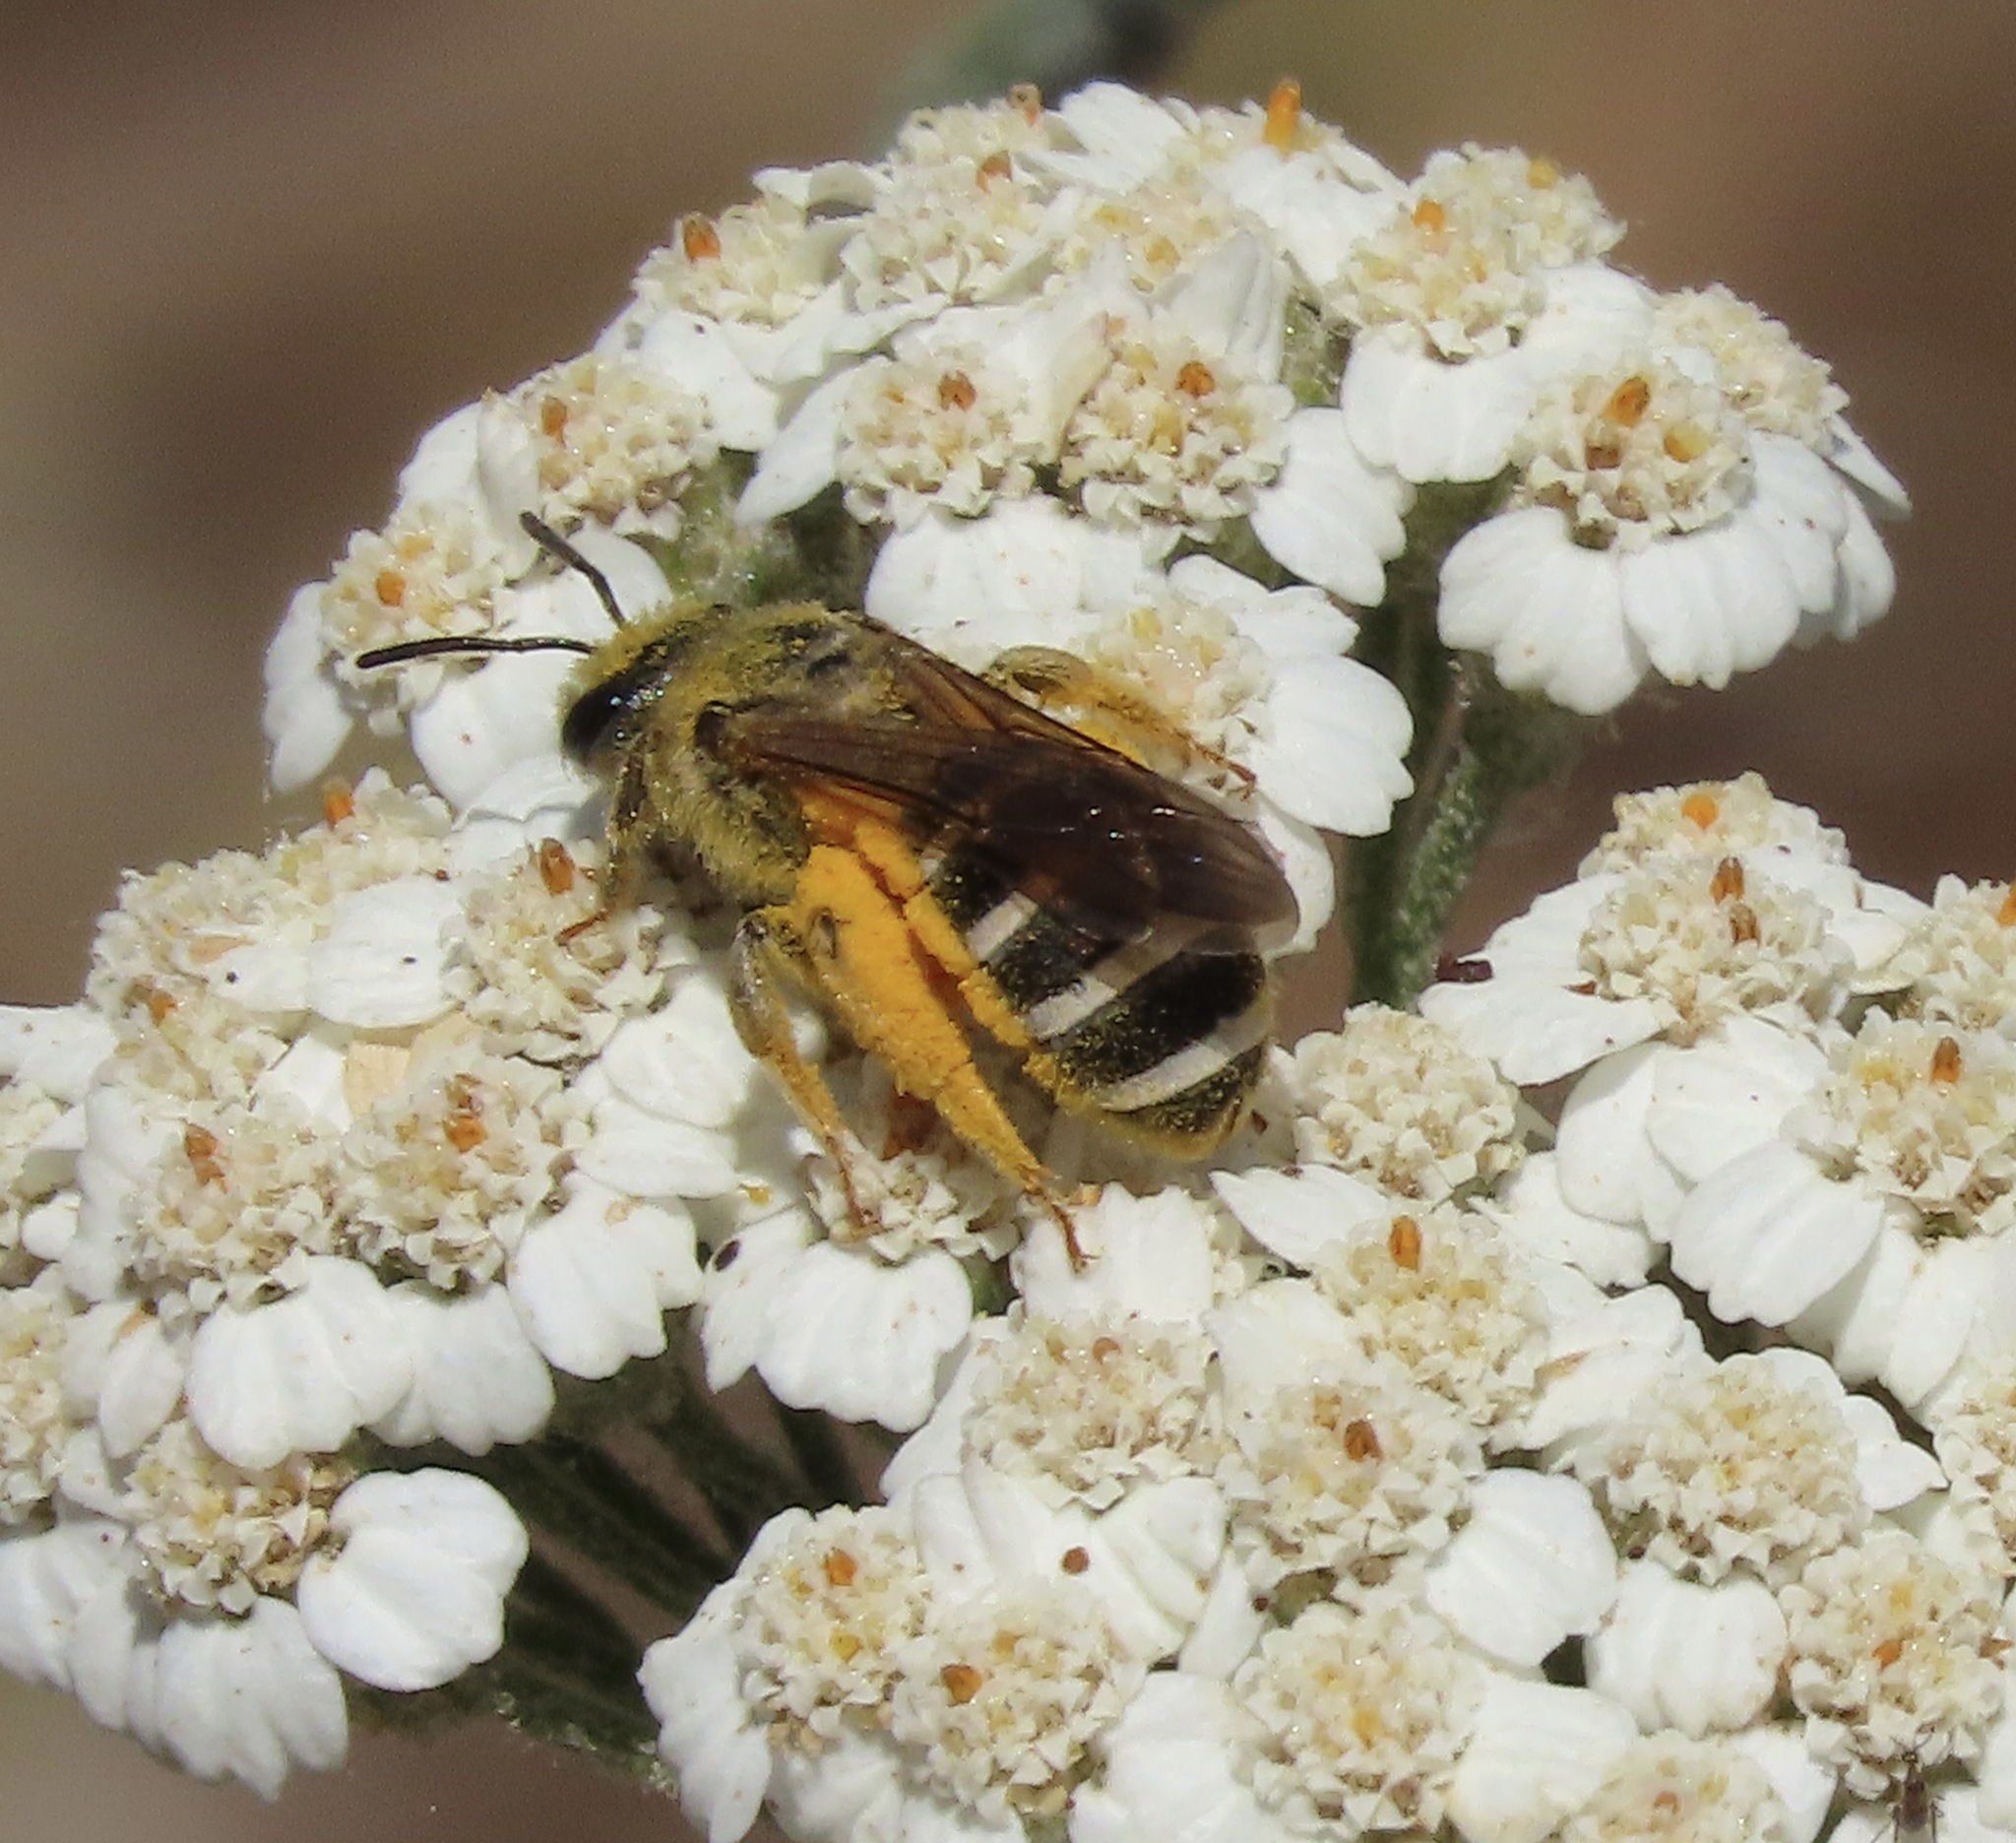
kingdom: Animalia
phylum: Arthropoda
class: Insecta
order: Hymenoptera
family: Halictidae
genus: Halictus
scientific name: Halictus farinosus
